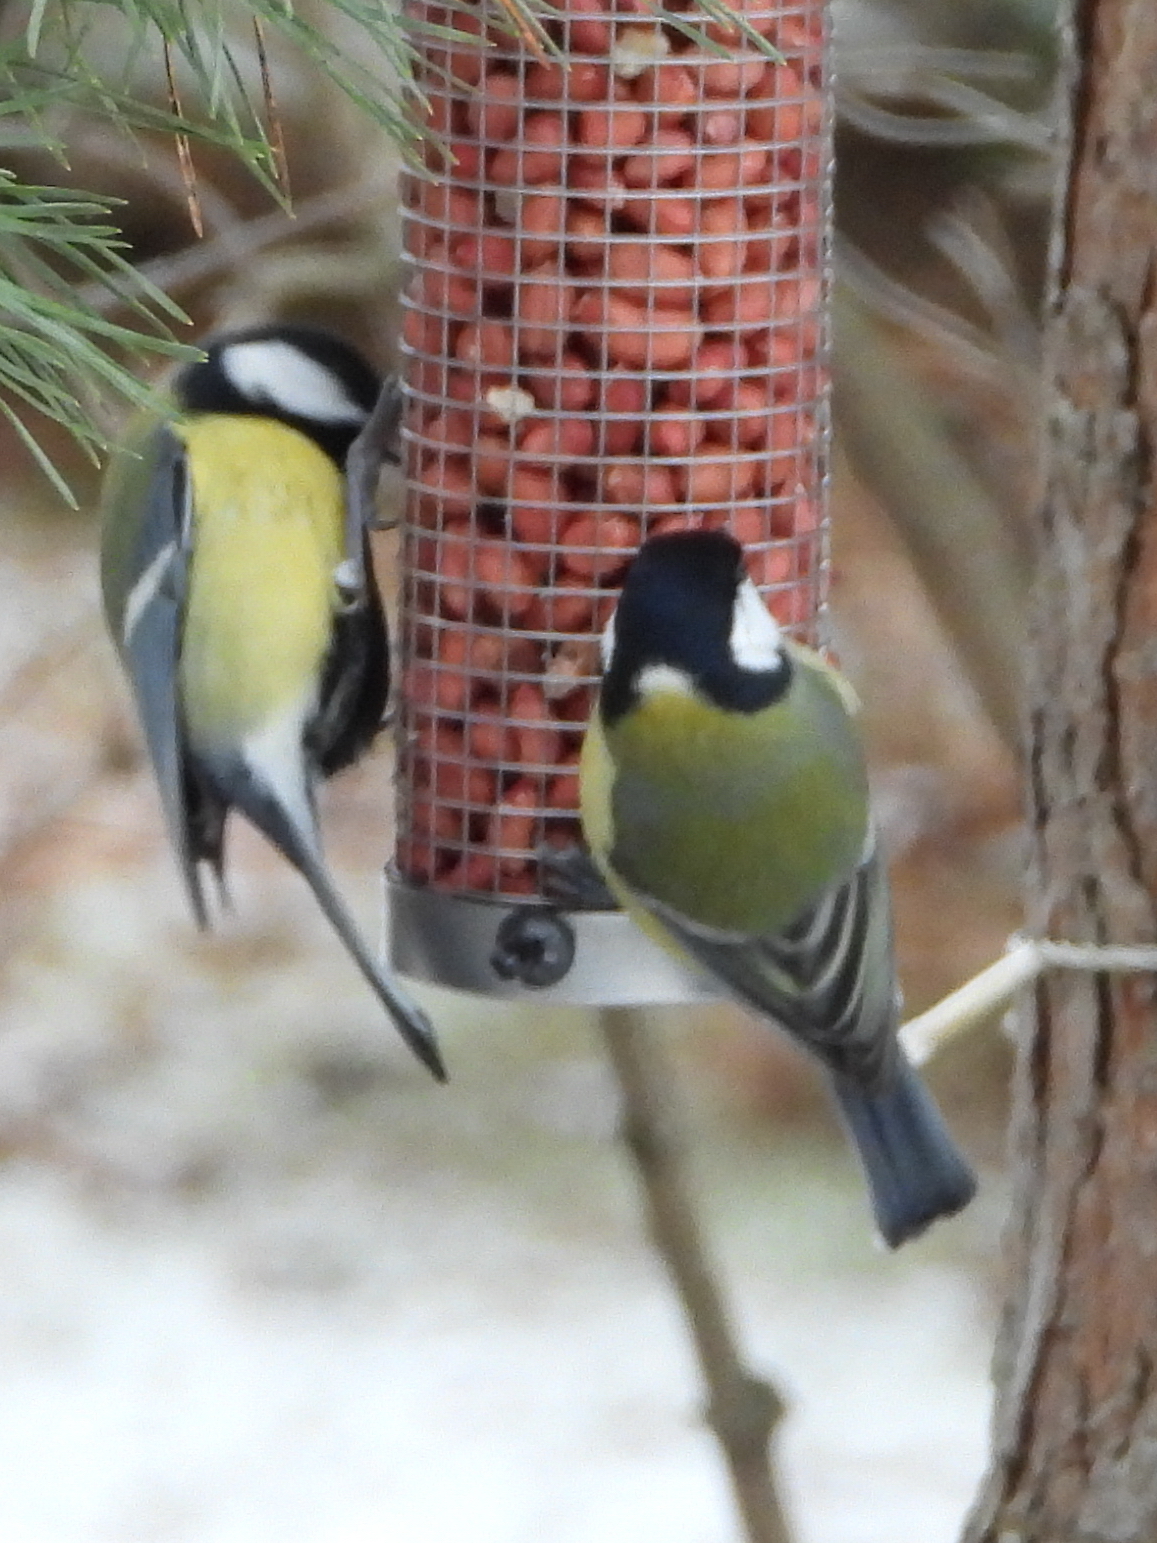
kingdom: Animalia
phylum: Chordata
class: Aves
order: Passeriformes
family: Paridae
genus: Parus
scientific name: Parus major
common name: Great tit
